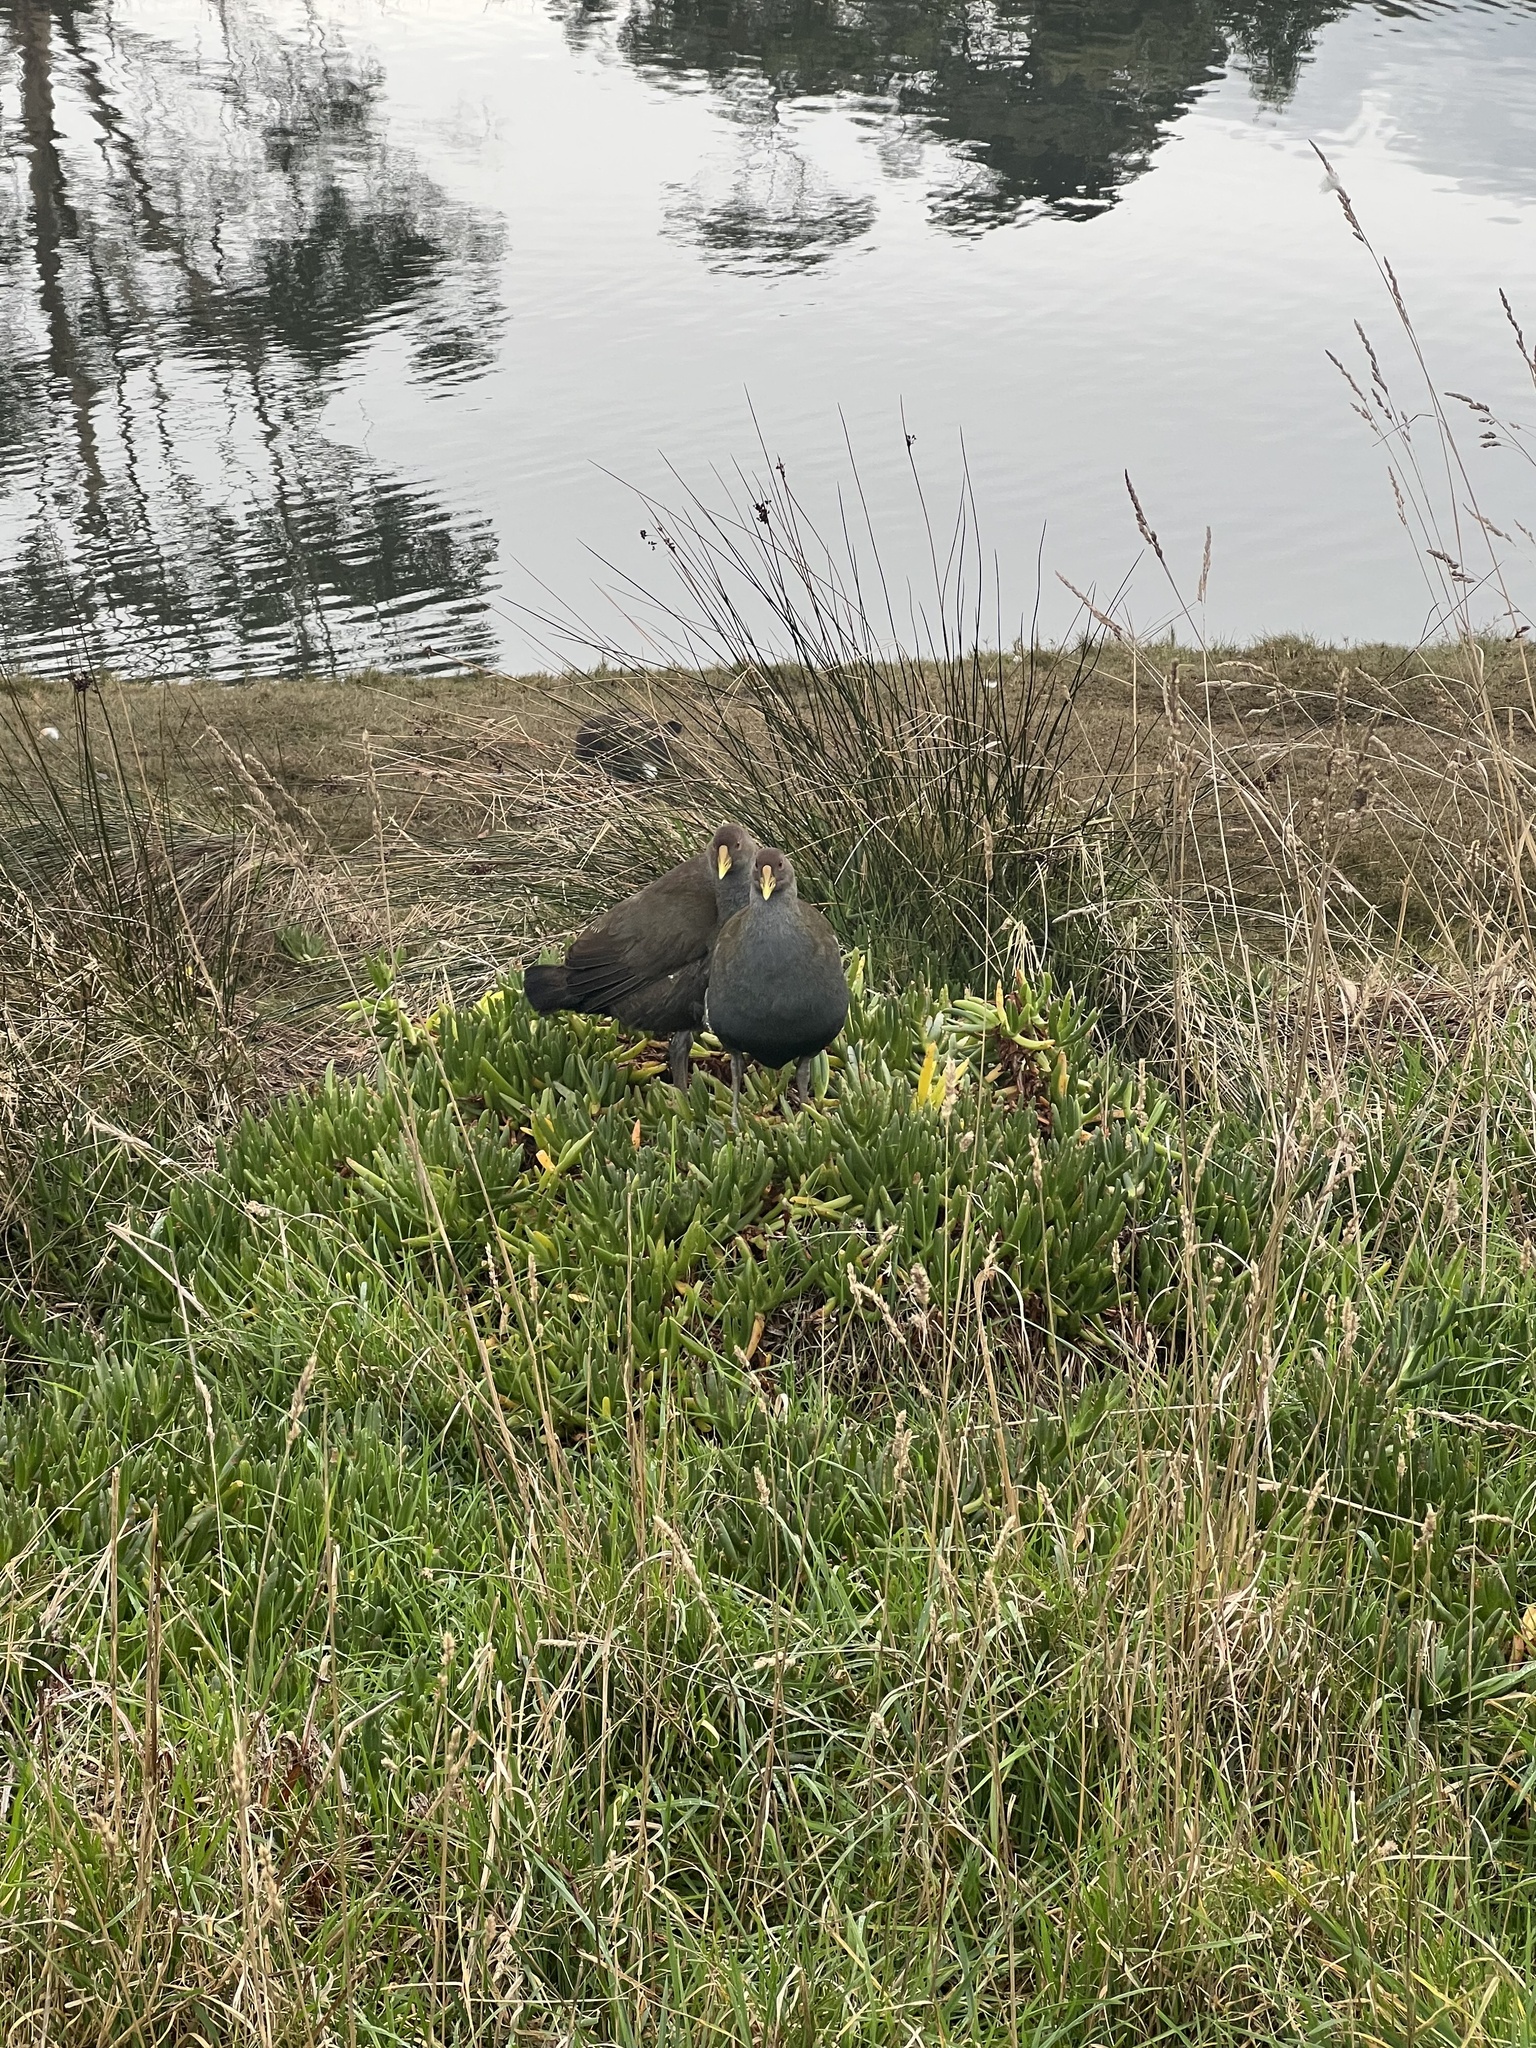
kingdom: Animalia
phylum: Chordata
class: Aves
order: Gruiformes
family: Rallidae
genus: Gallinula
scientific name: Gallinula mortierii
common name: Tasmanian nativehen
